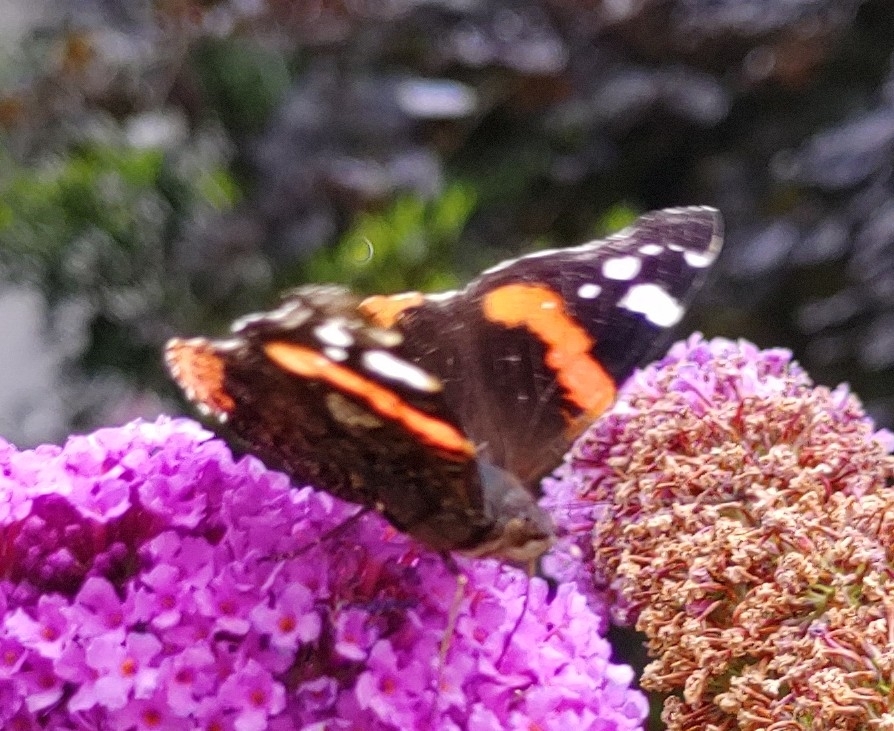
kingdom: Animalia
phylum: Arthropoda
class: Insecta
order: Lepidoptera
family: Nymphalidae
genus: Vanessa
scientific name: Vanessa atalanta
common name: Red admiral
